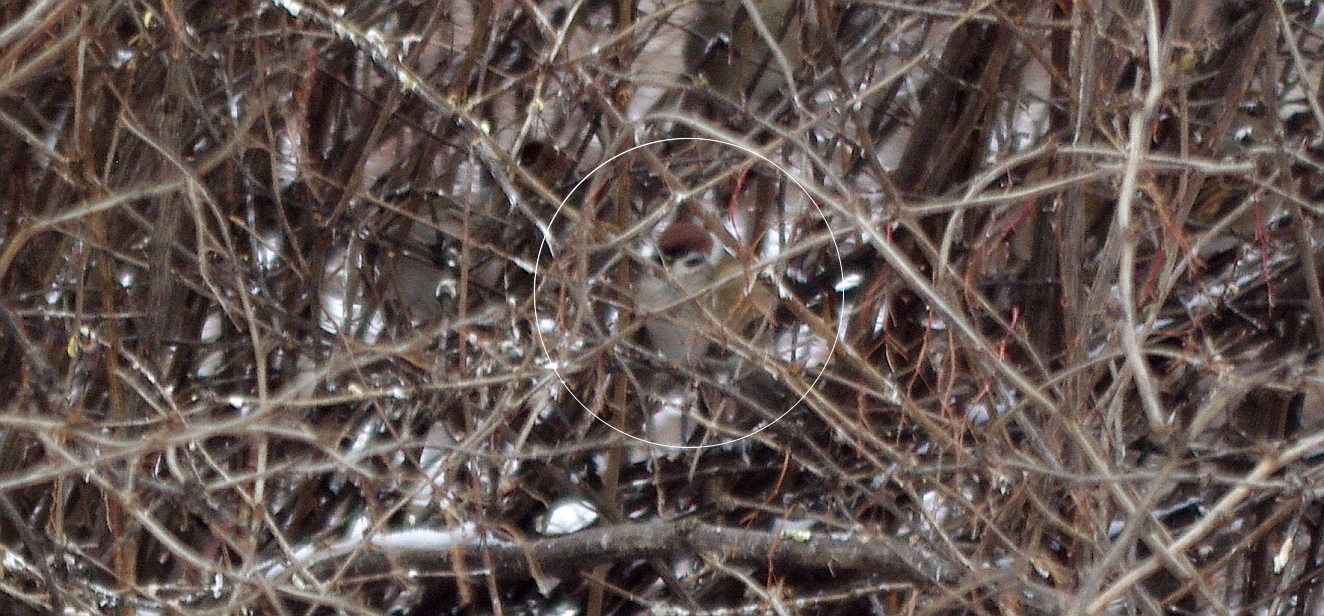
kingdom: Animalia
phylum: Chordata
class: Aves
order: Passeriformes
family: Passeridae
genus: Passer
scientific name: Passer montanus
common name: Eurasian tree sparrow
